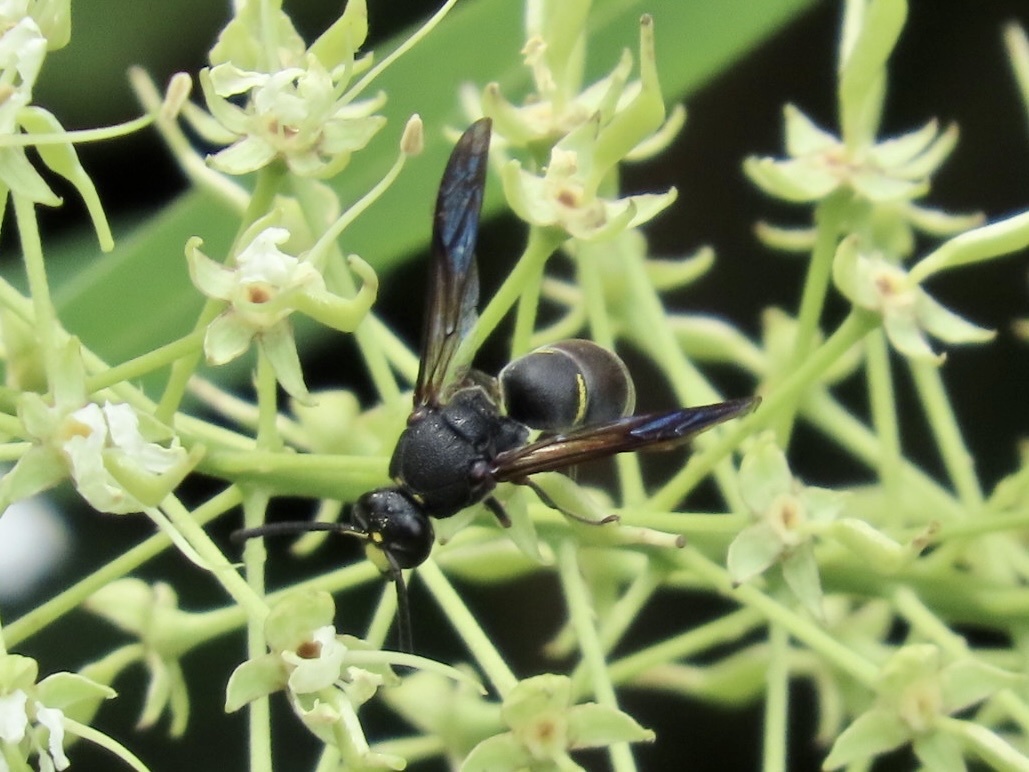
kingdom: Animalia
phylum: Arthropoda
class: Insecta
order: Hymenoptera
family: Eumenidae
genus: Anterhynchium
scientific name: Anterhynchium flavomarginatum
